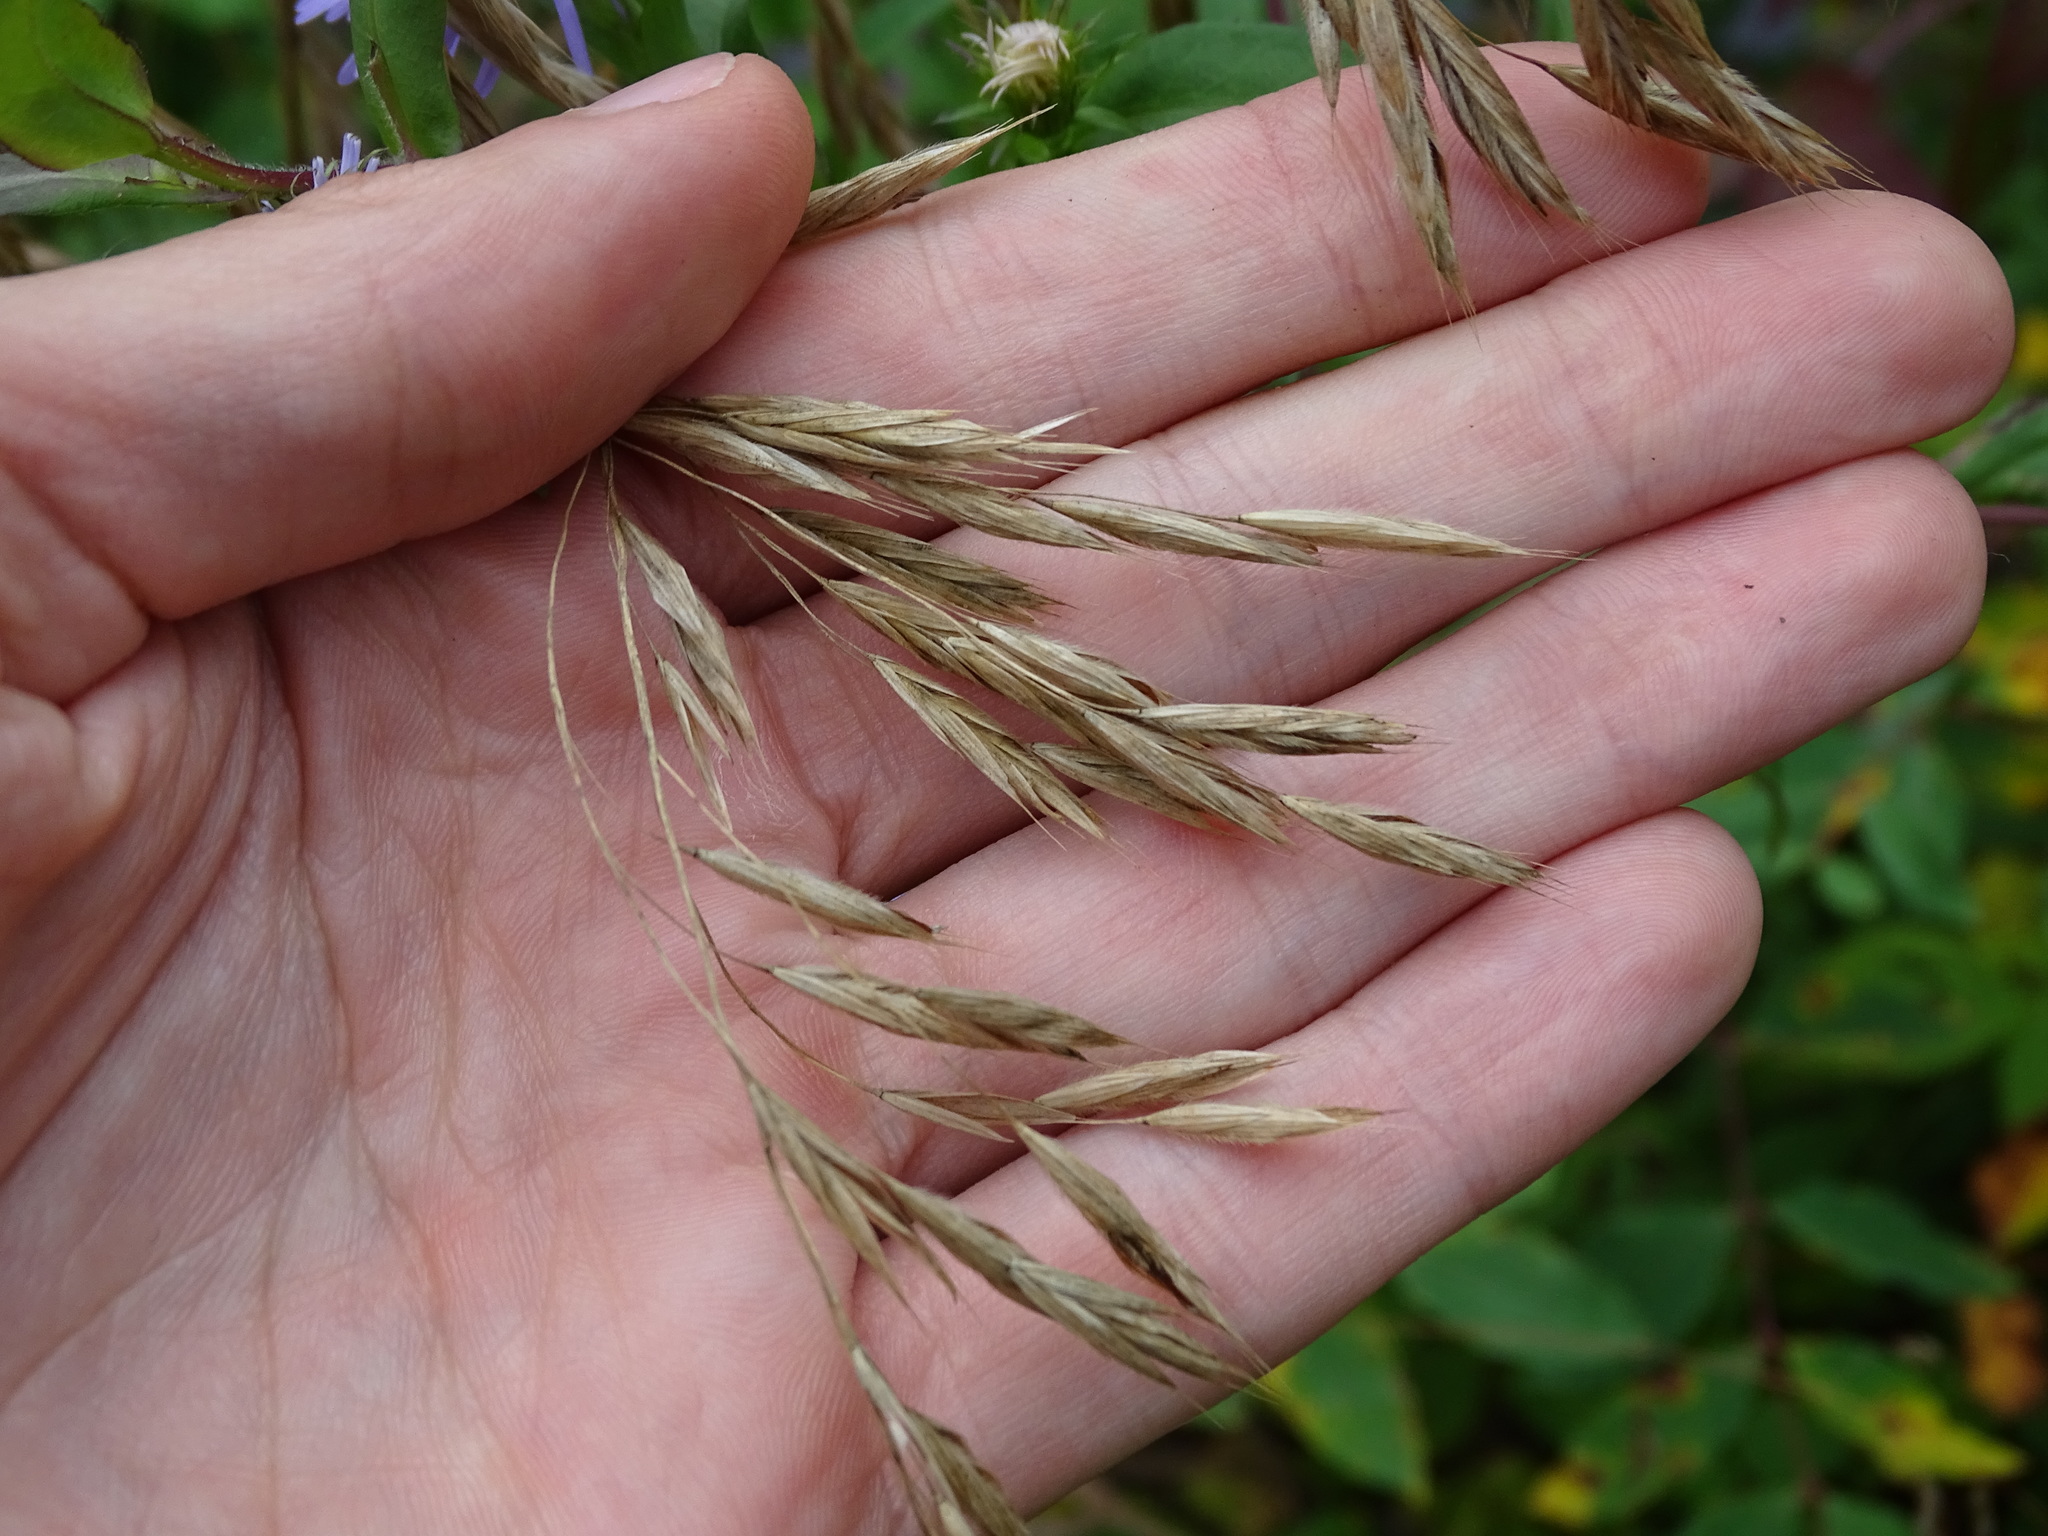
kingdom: Plantae
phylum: Tracheophyta
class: Liliopsida
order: Poales
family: Poaceae
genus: Bromus
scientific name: Bromus ciliatus
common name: Fringe brome
